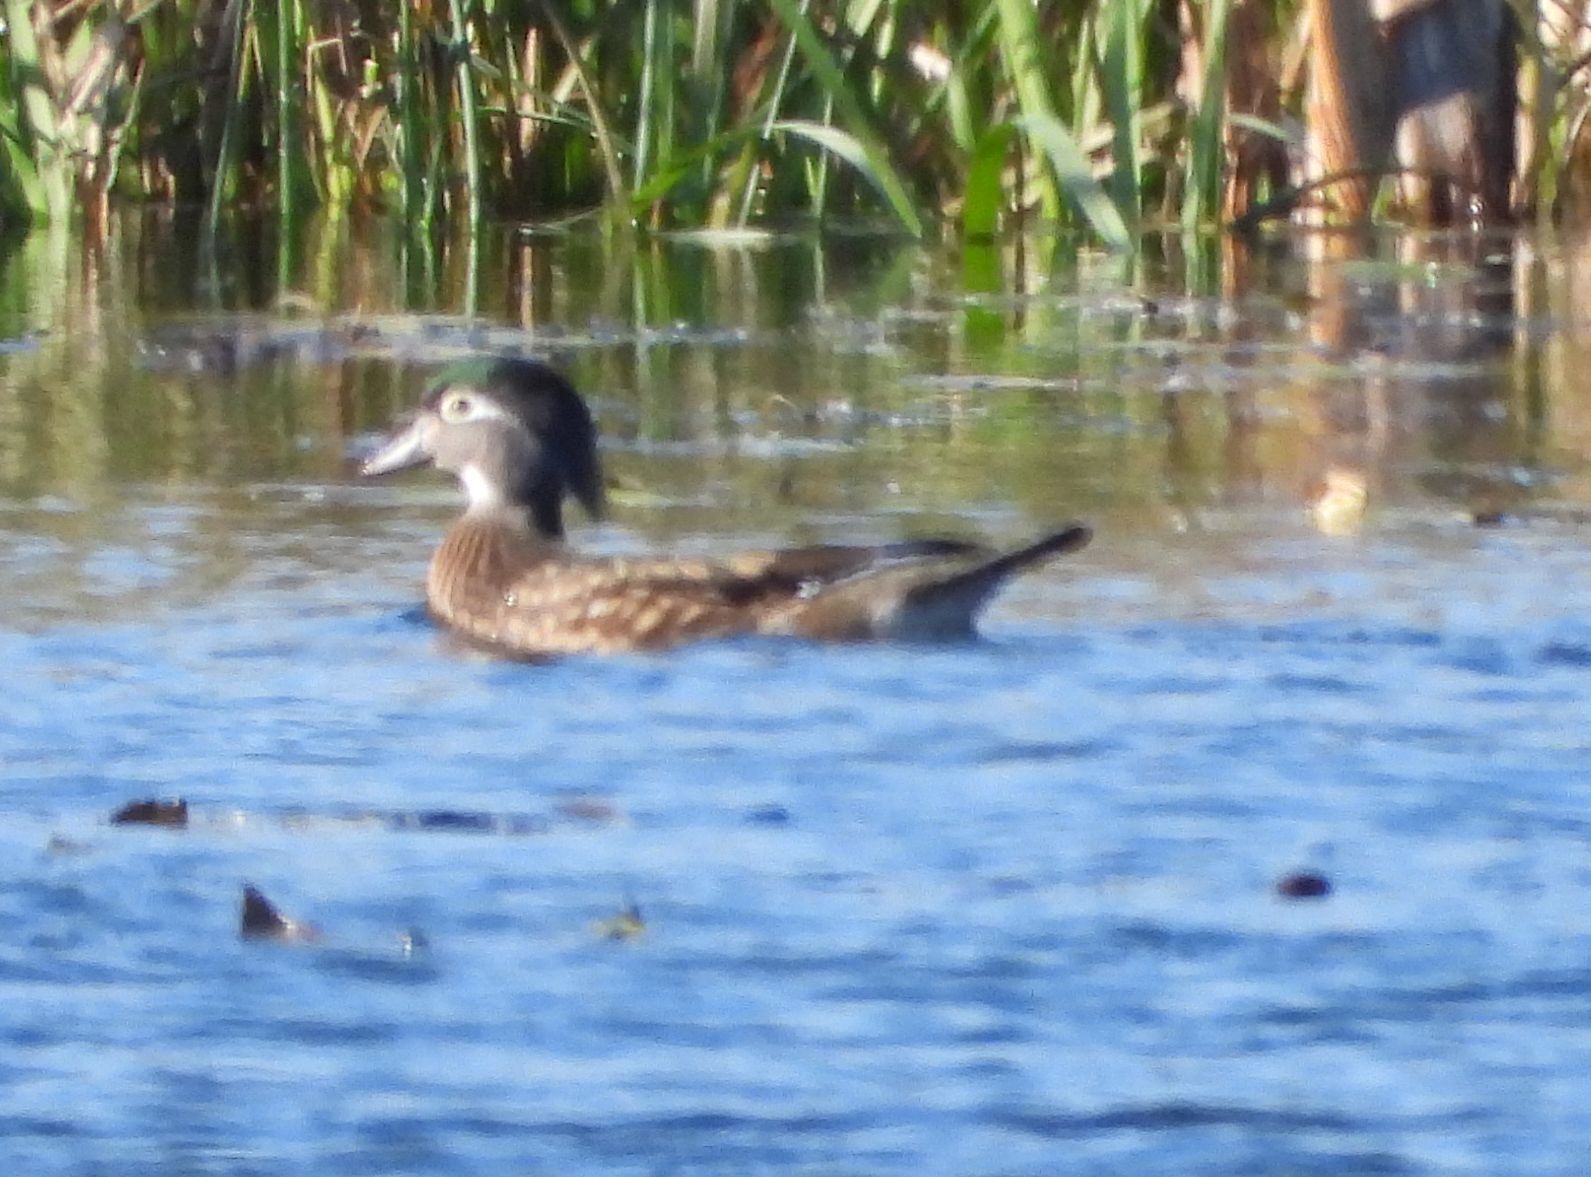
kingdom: Animalia
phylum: Chordata
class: Aves
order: Anseriformes
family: Anatidae
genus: Aix
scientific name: Aix sponsa
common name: Wood duck
